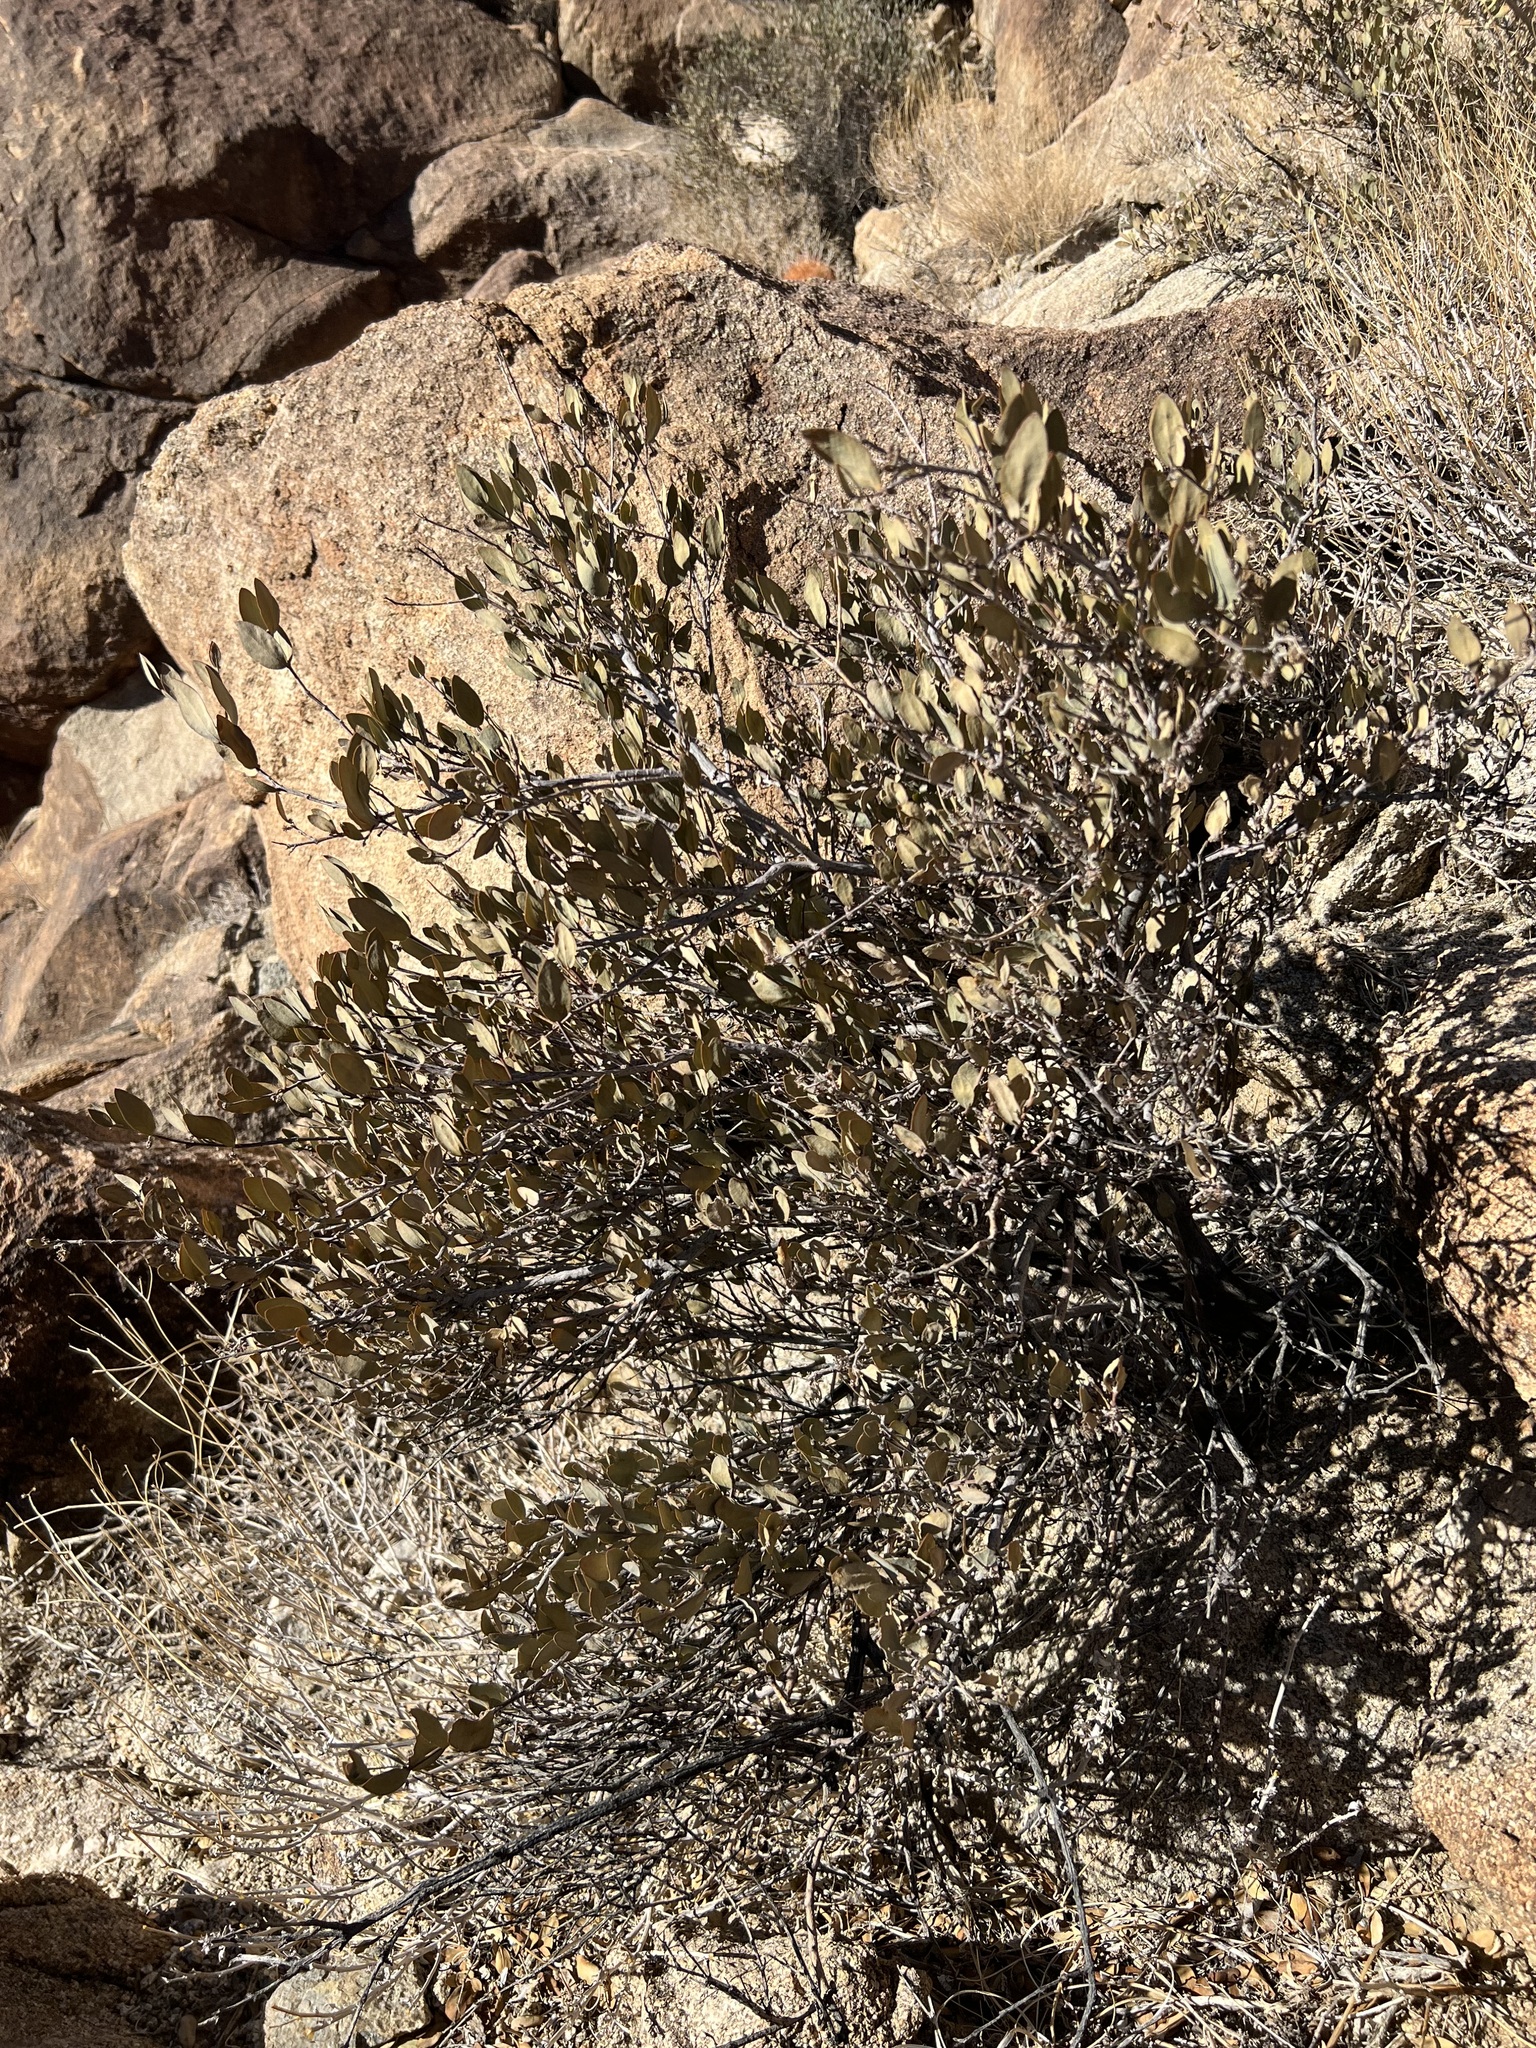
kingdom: Plantae
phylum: Tracheophyta
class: Magnoliopsida
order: Caryophyllales
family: Simmondsiaceae
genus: Simmondsia
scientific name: Simmondsia chinensis
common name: Jojoba
